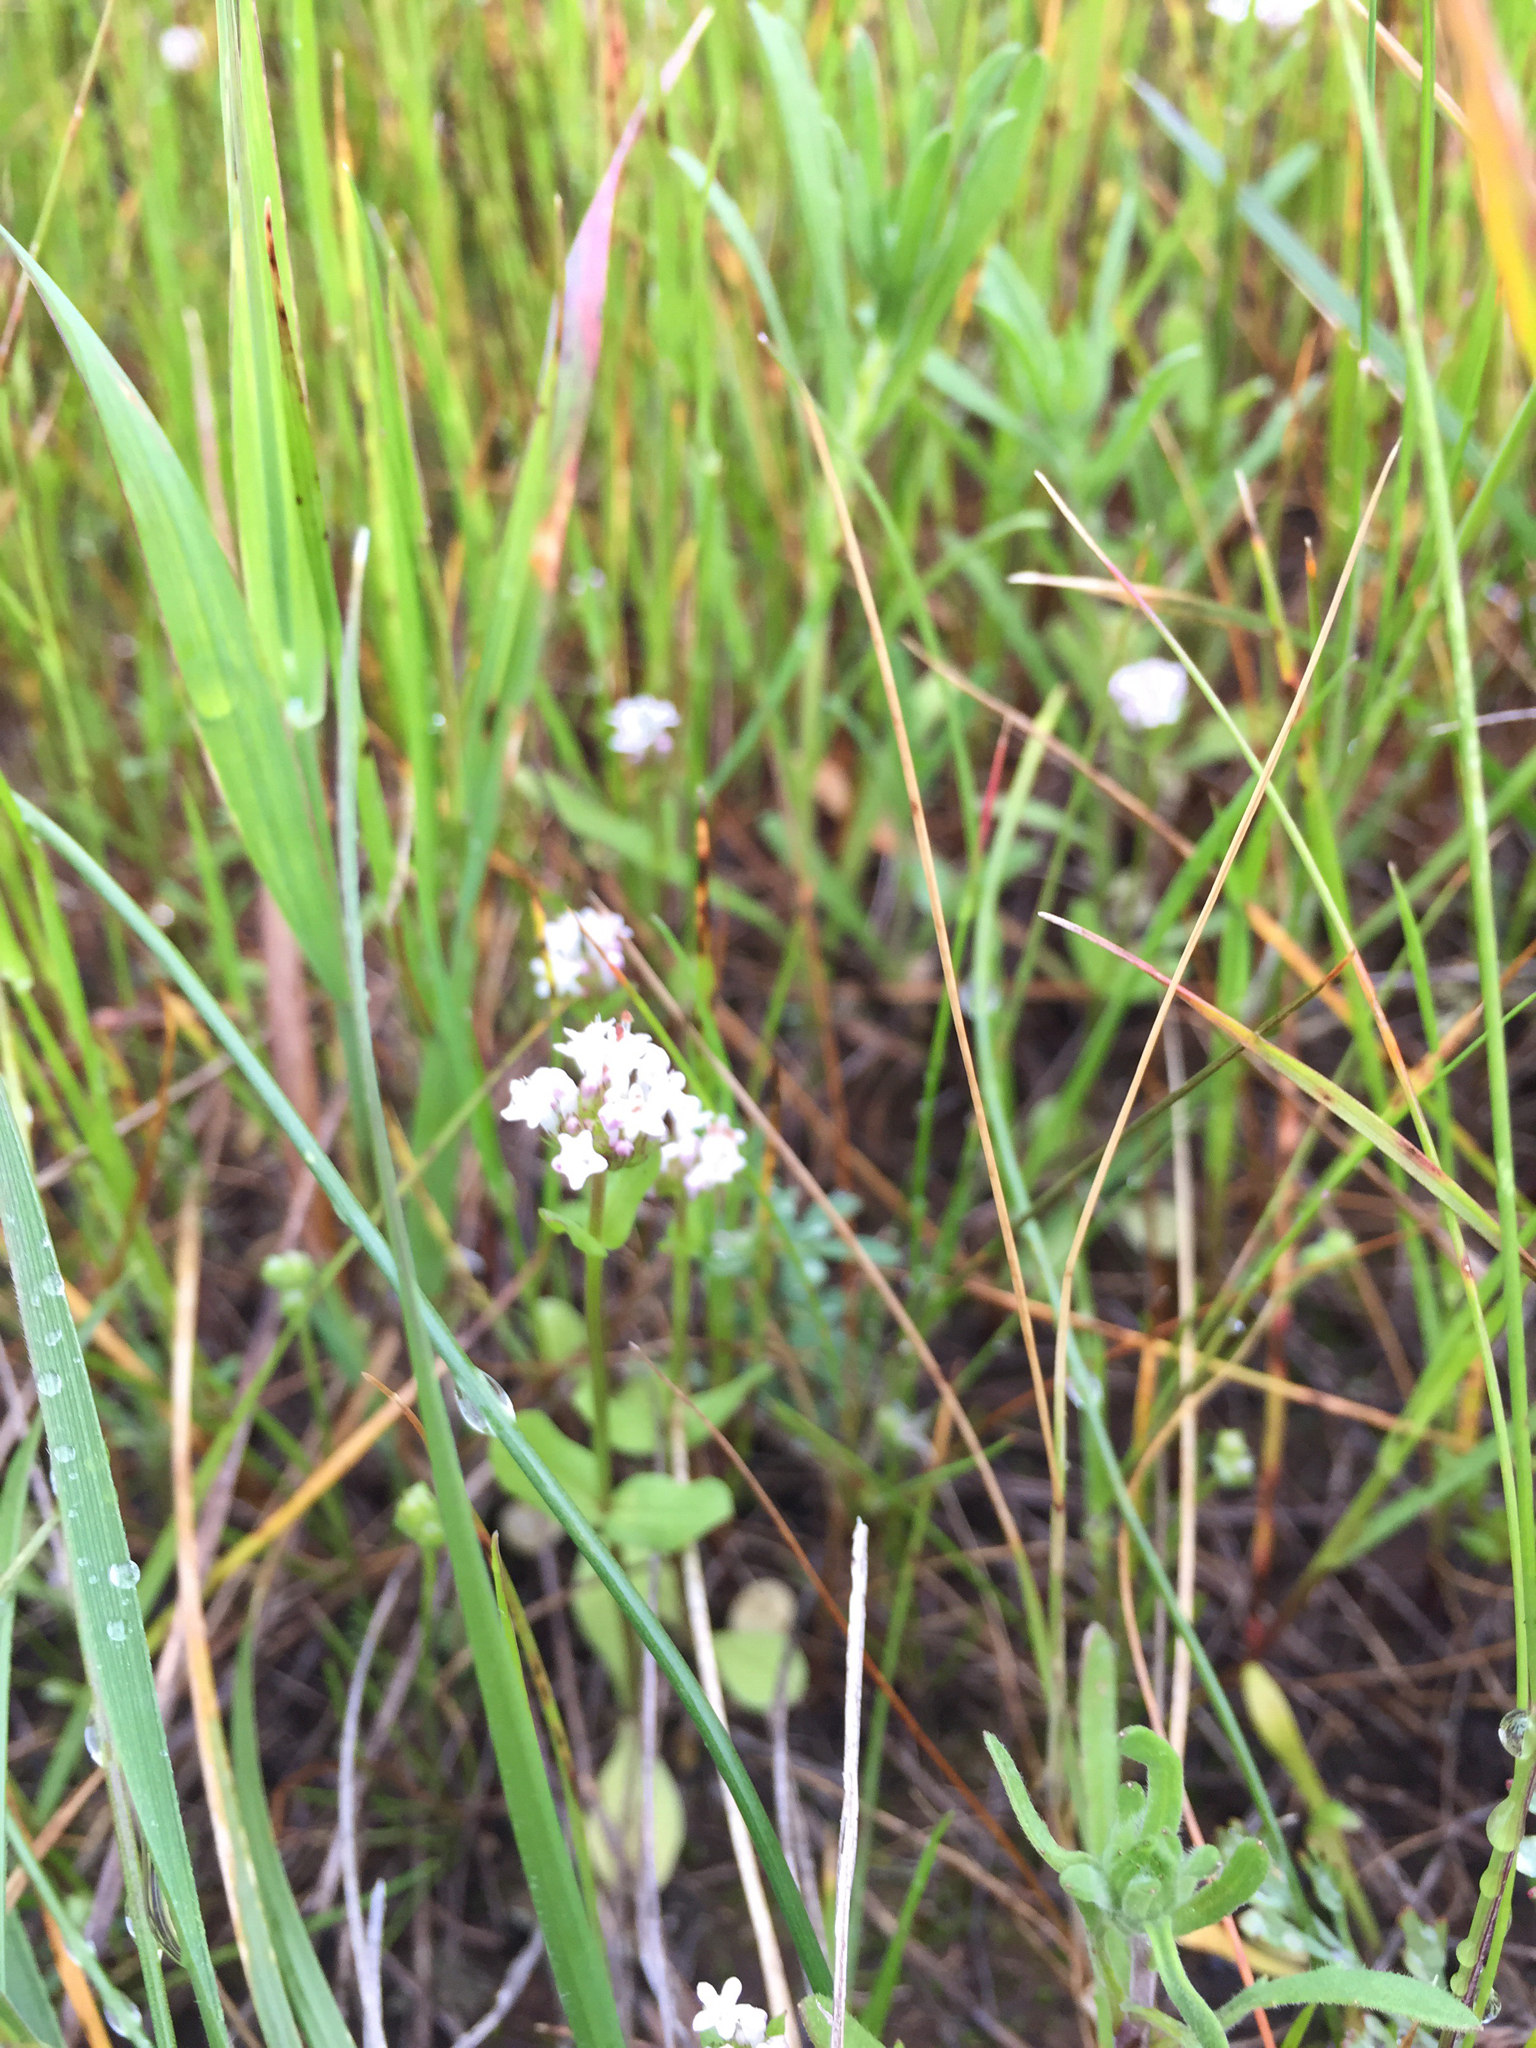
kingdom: Plantae
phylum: Tracheophyta
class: Magnoliopsida
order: Dipsacales
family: Caprifoliaceae
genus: Plectritis
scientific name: Plectritis macroptera
